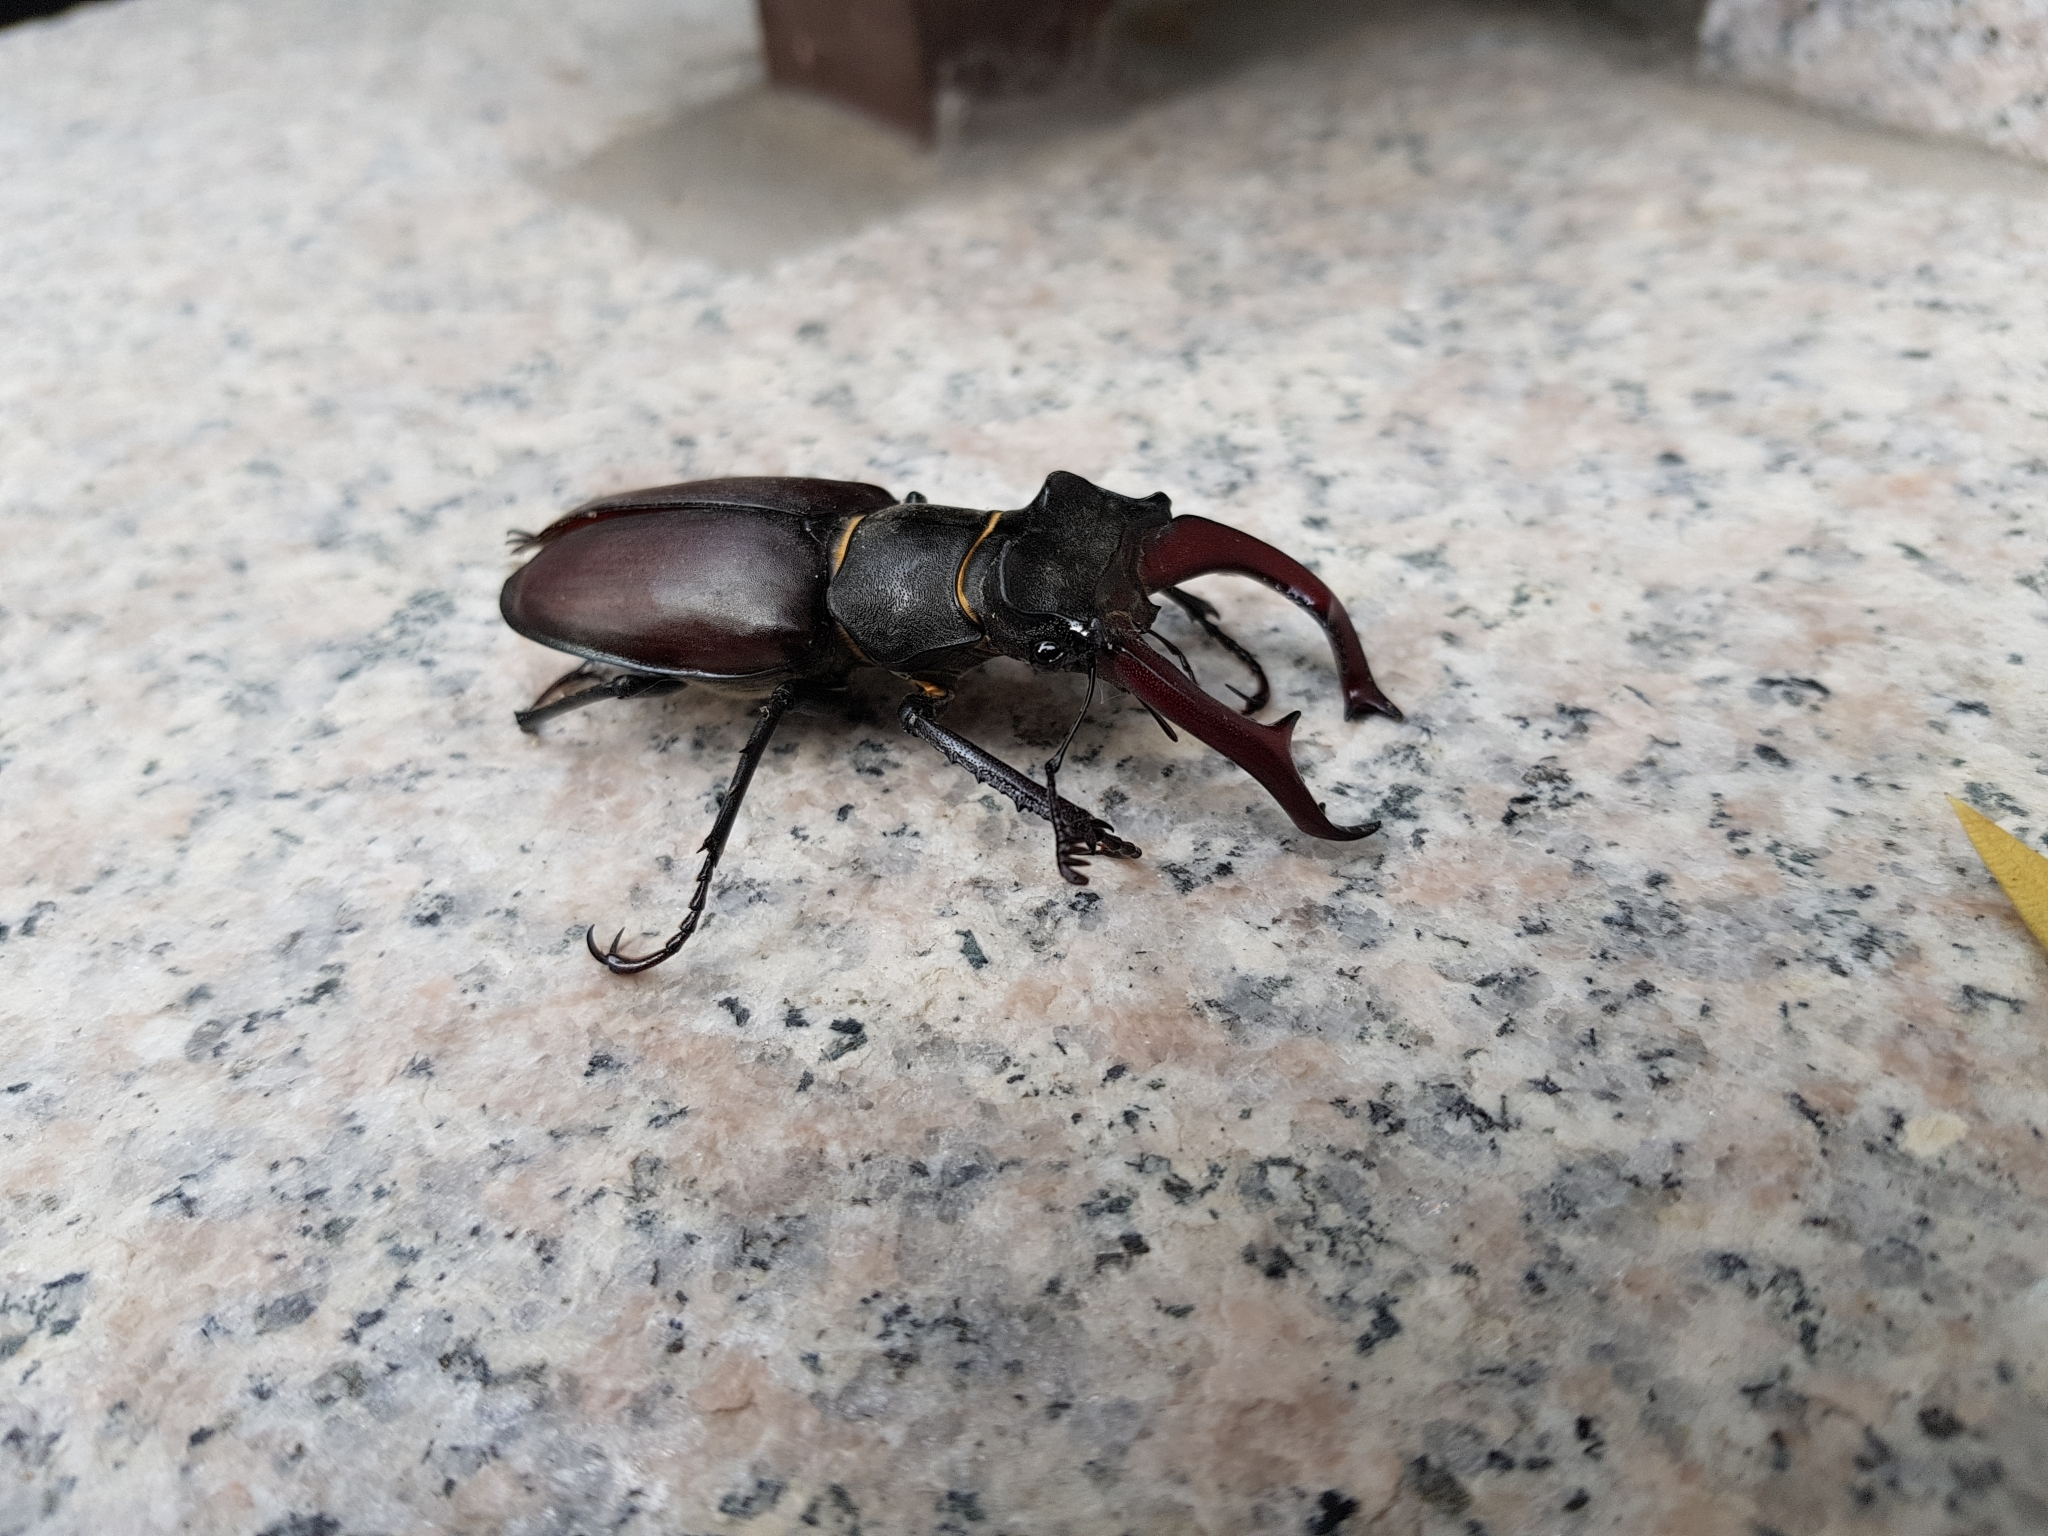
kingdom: Animalia
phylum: Arthropoda
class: Insecta
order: Coleoptera
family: Lucanidae
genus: Lucanus
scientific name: Lucanus cervus
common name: Stag beetle
